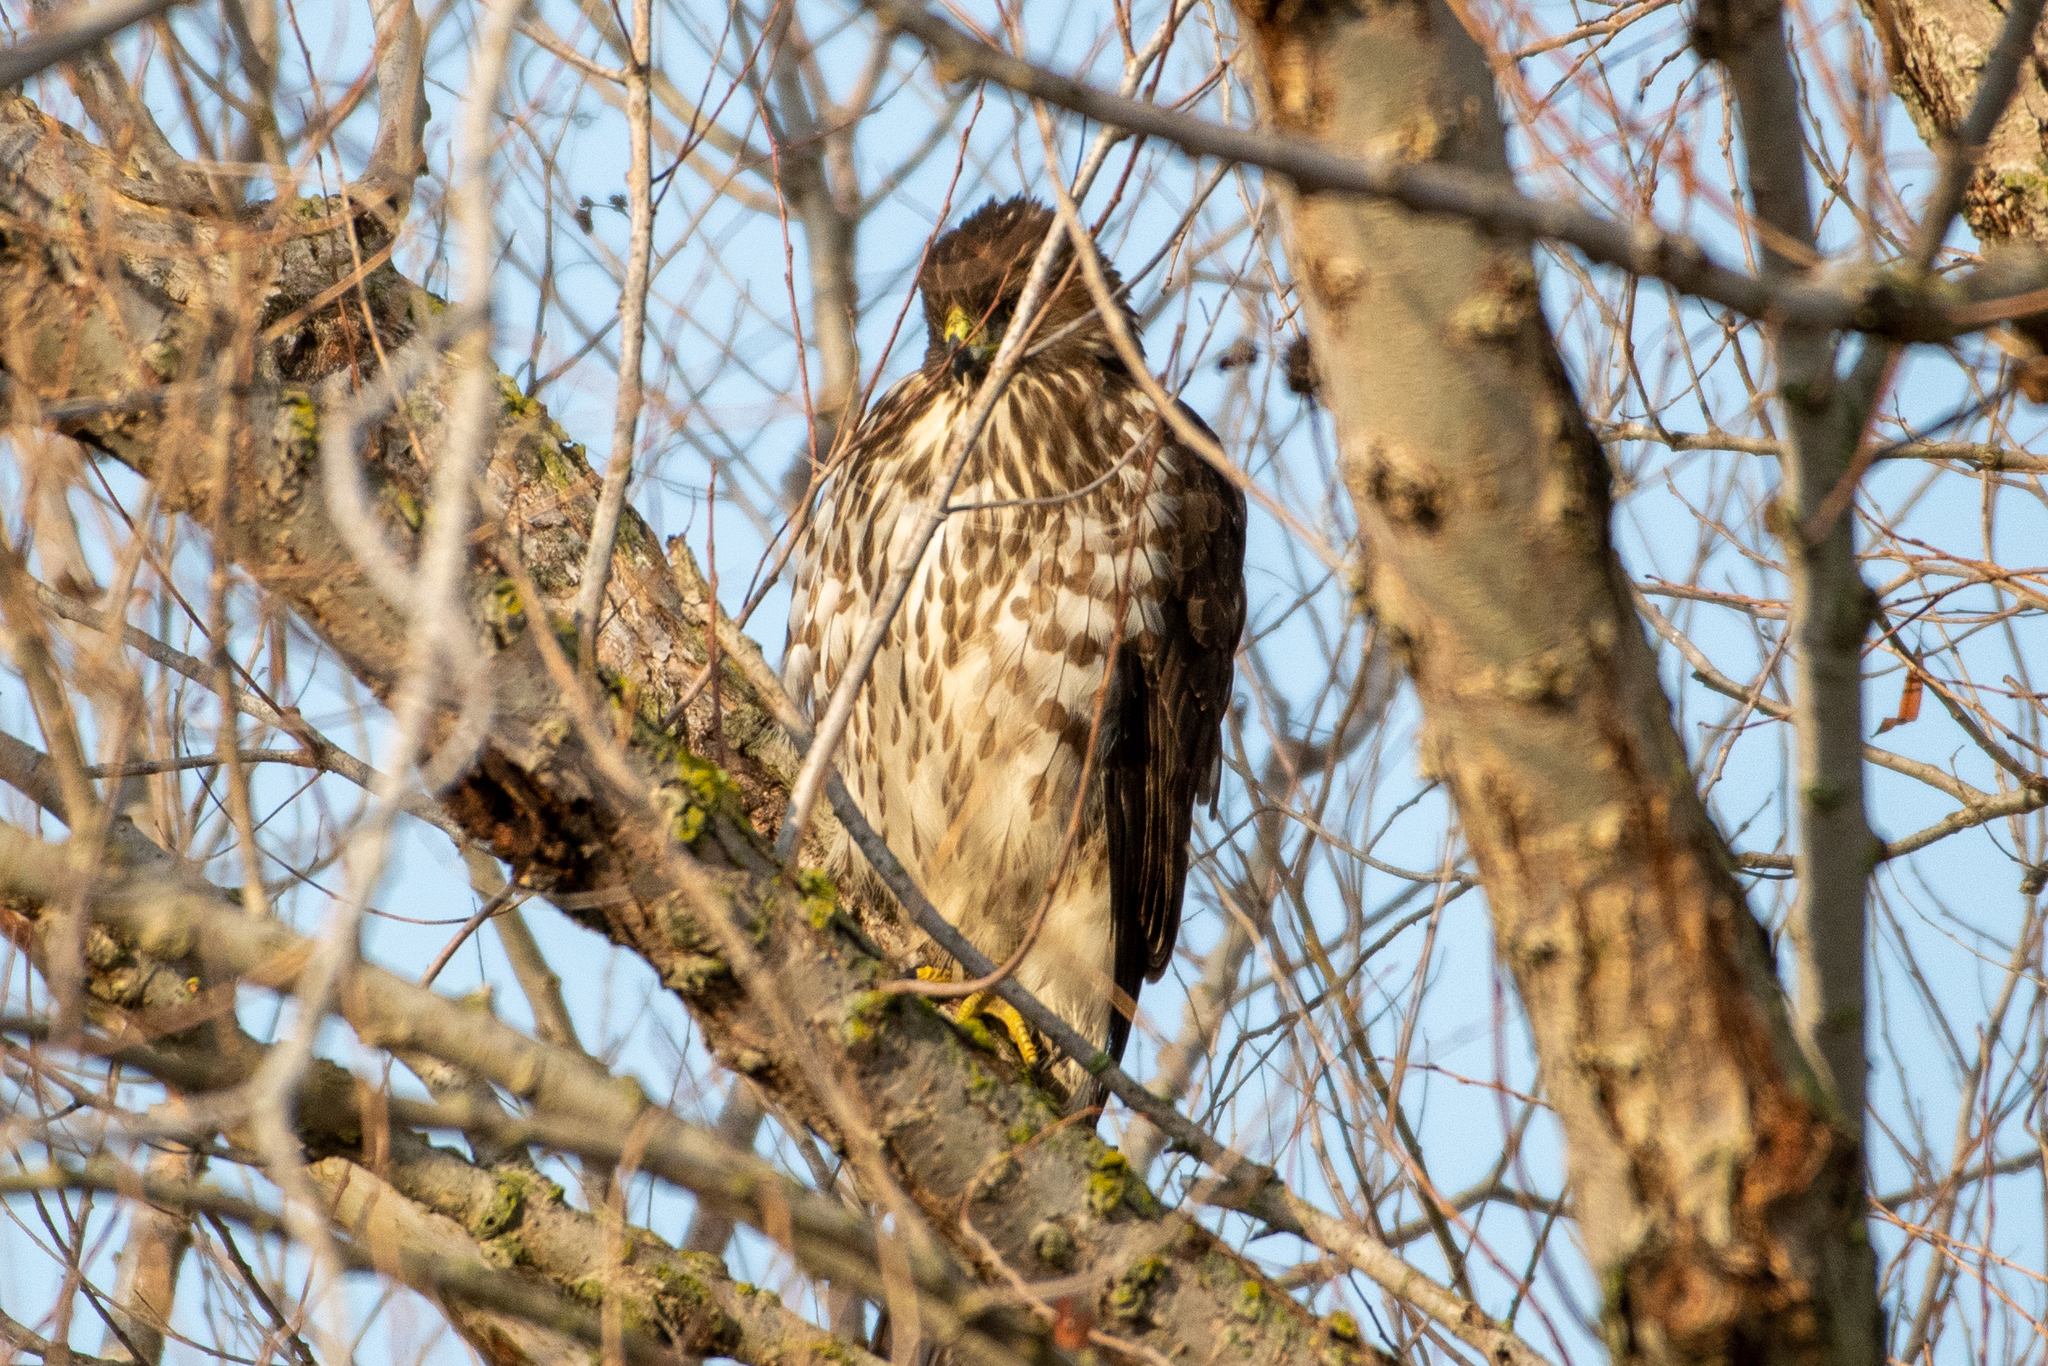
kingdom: Animalia
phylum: Chordata
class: Aves
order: Accipitriformes
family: Accipitridae
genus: Accipiter
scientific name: Accipiter cooperii
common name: Cooper's hawk
